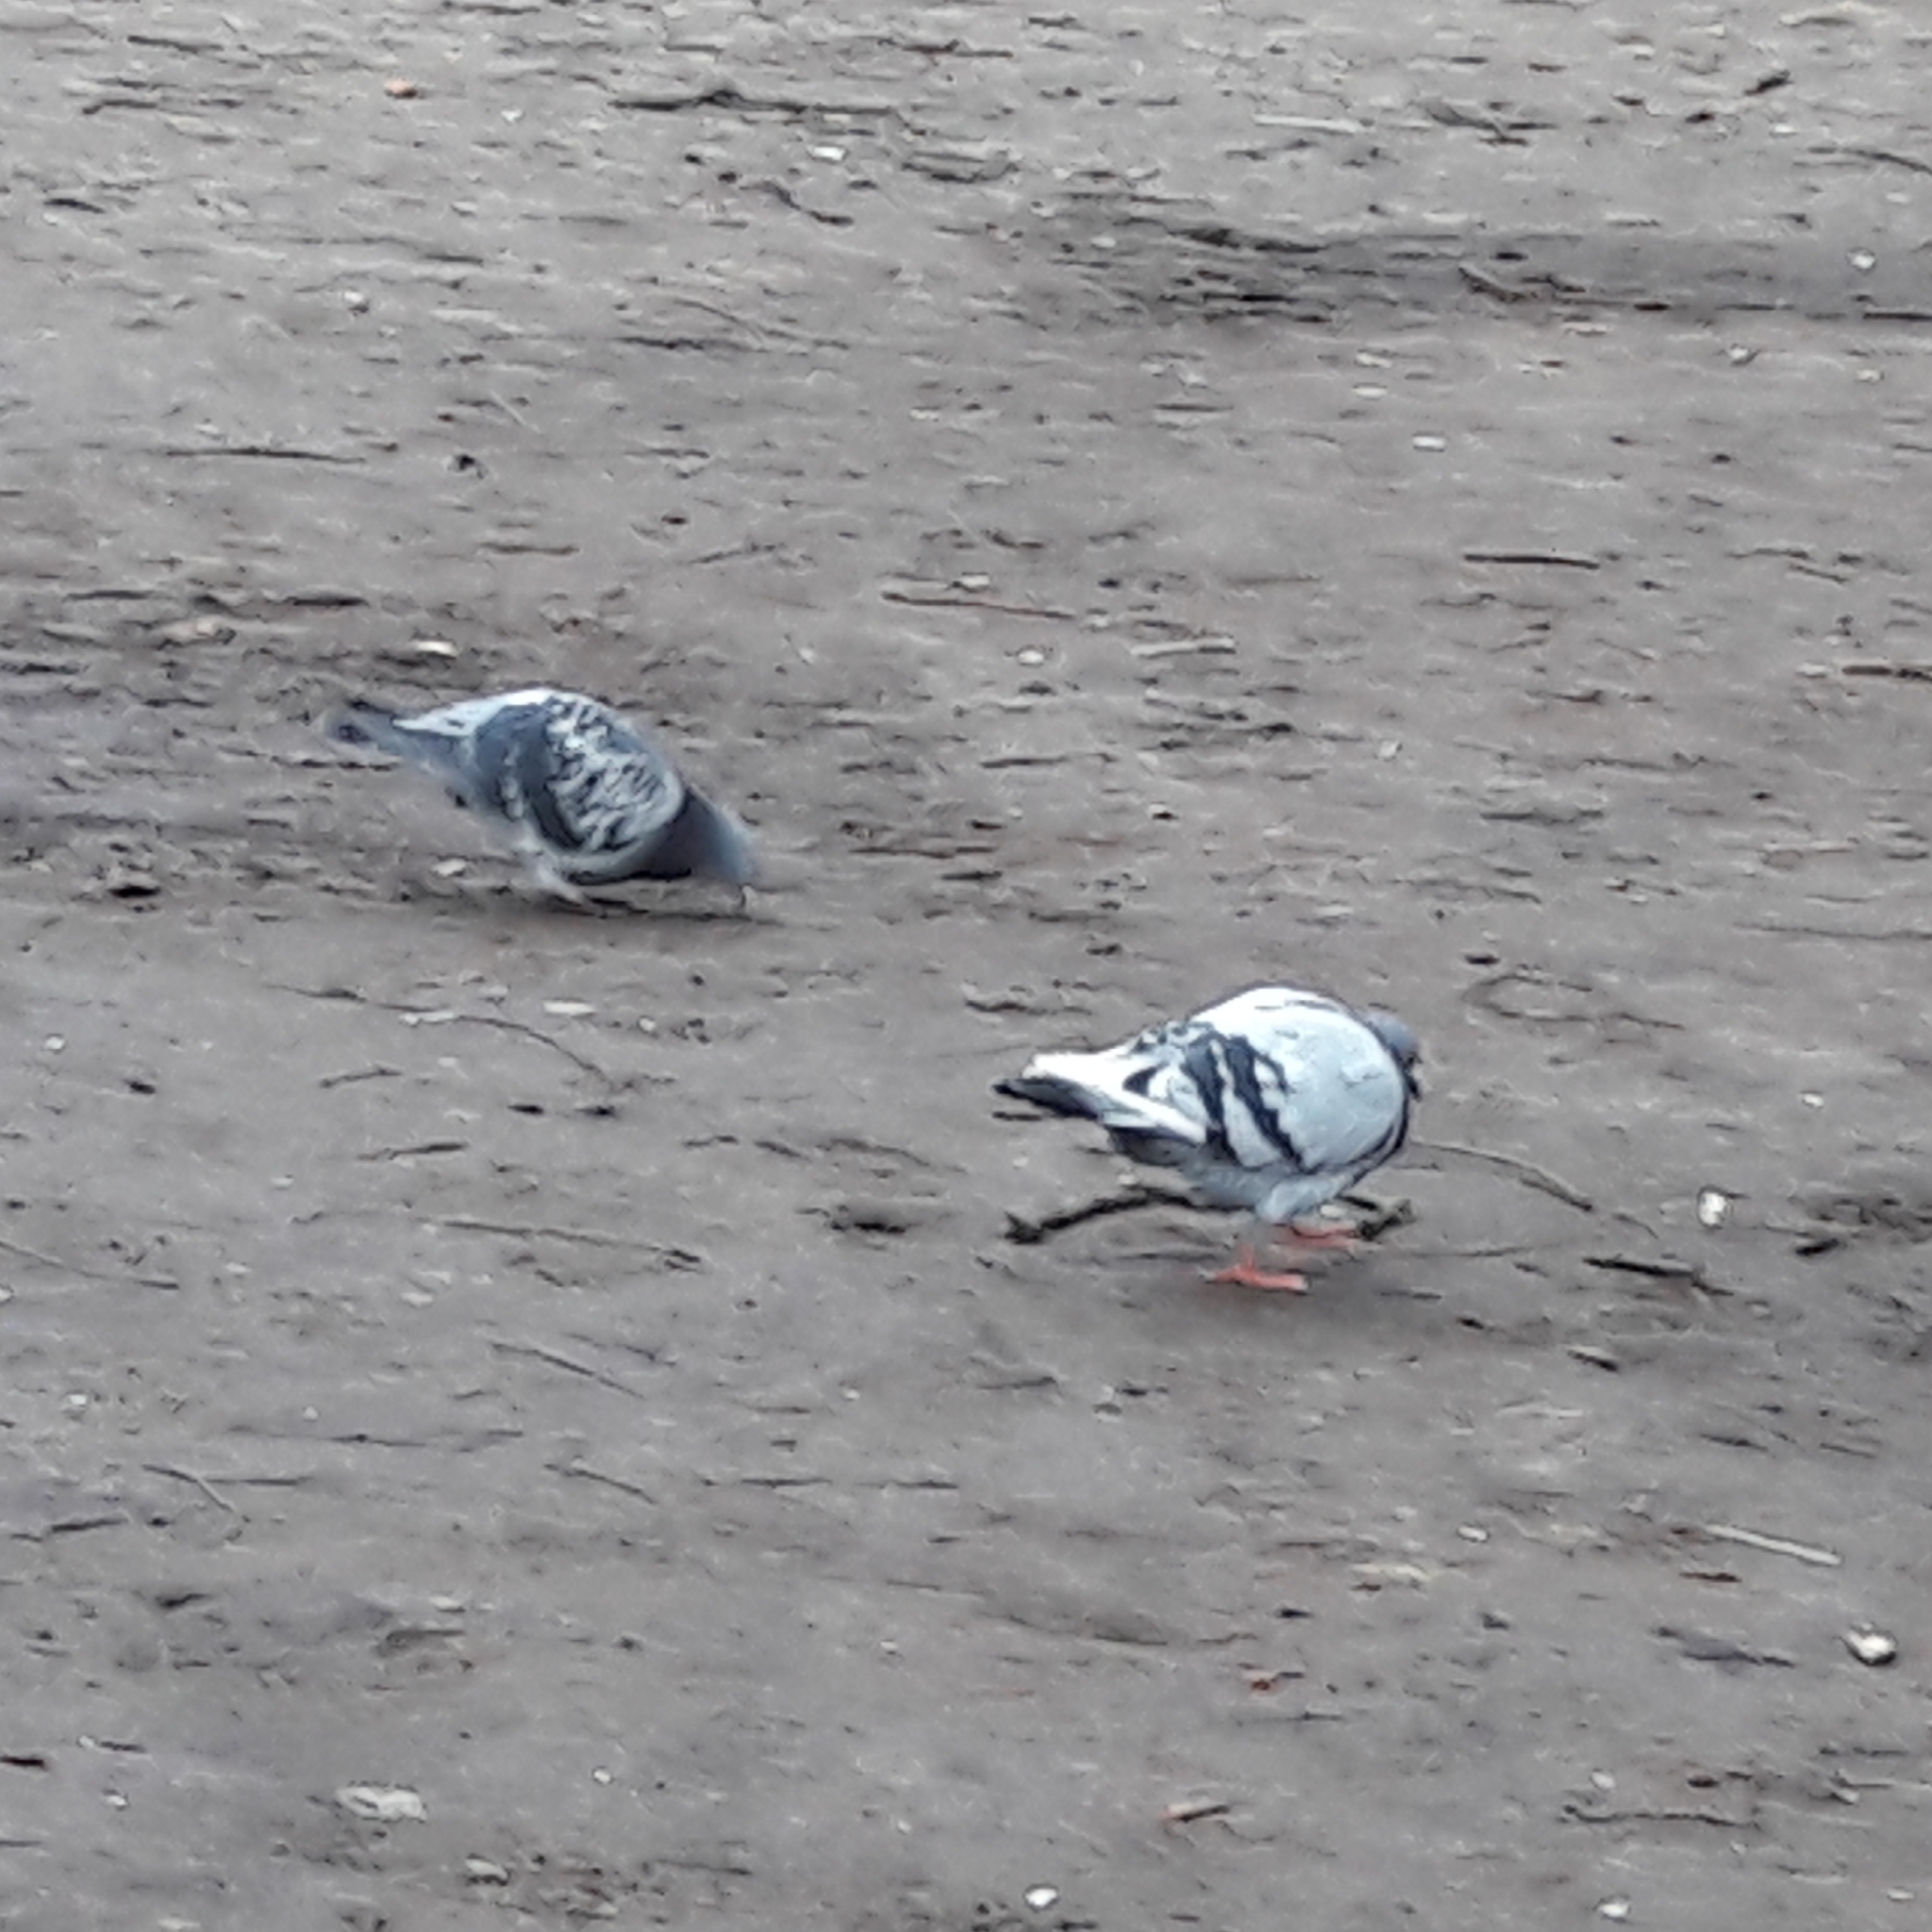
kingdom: Animalia
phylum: Chordata
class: Aves
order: Columbiformes
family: Columbidae
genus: Columba
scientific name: Columba livia
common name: Rock pigeon
